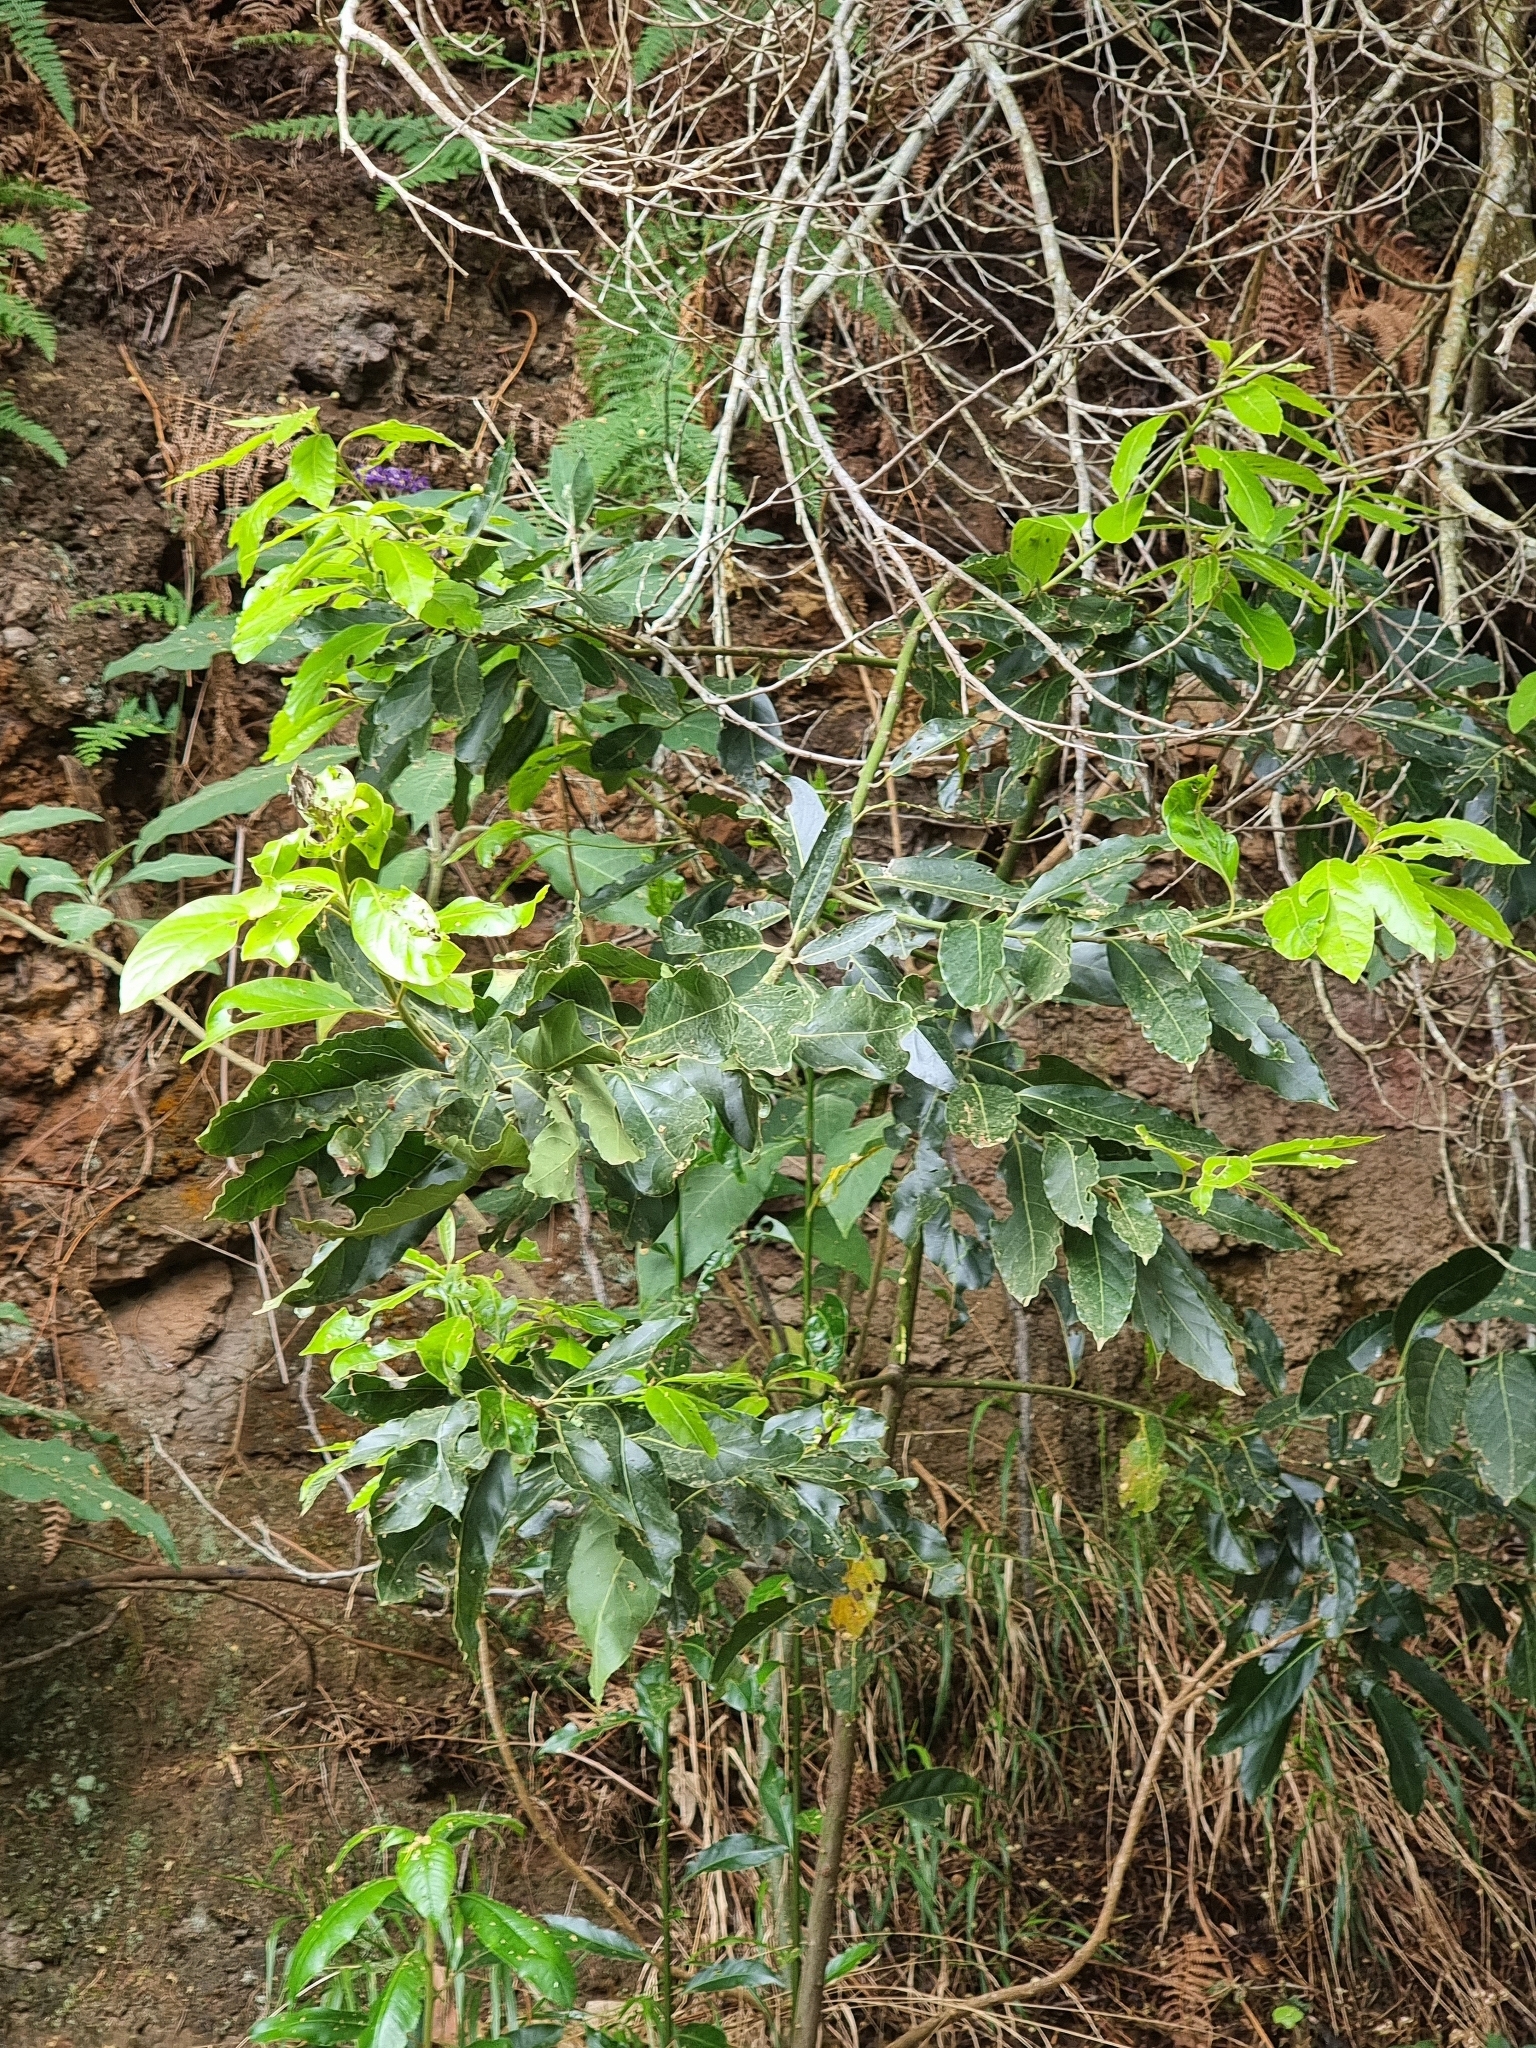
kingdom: Plantae
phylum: Tracheophyta
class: Magnoliopsida
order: Laurales
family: Lauraceae
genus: Laurus
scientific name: Laurus novocanariensis
